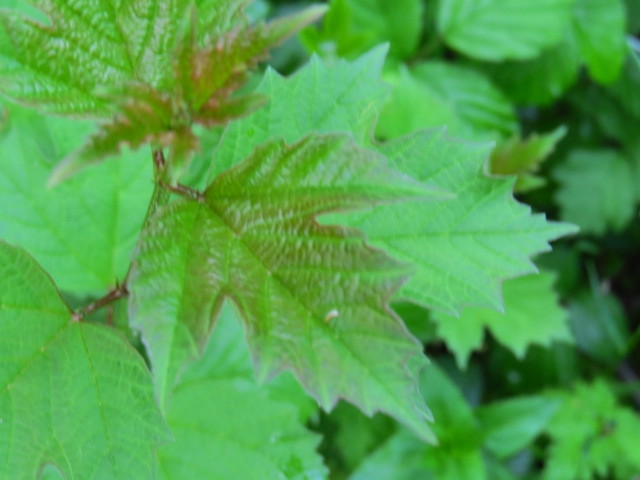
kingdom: Plantae
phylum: Tracheophyta
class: Magnoliopsida
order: Dipsacales
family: Viburnaceae
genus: Viburnum
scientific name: Viburnum opulus
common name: Guelder-rose
